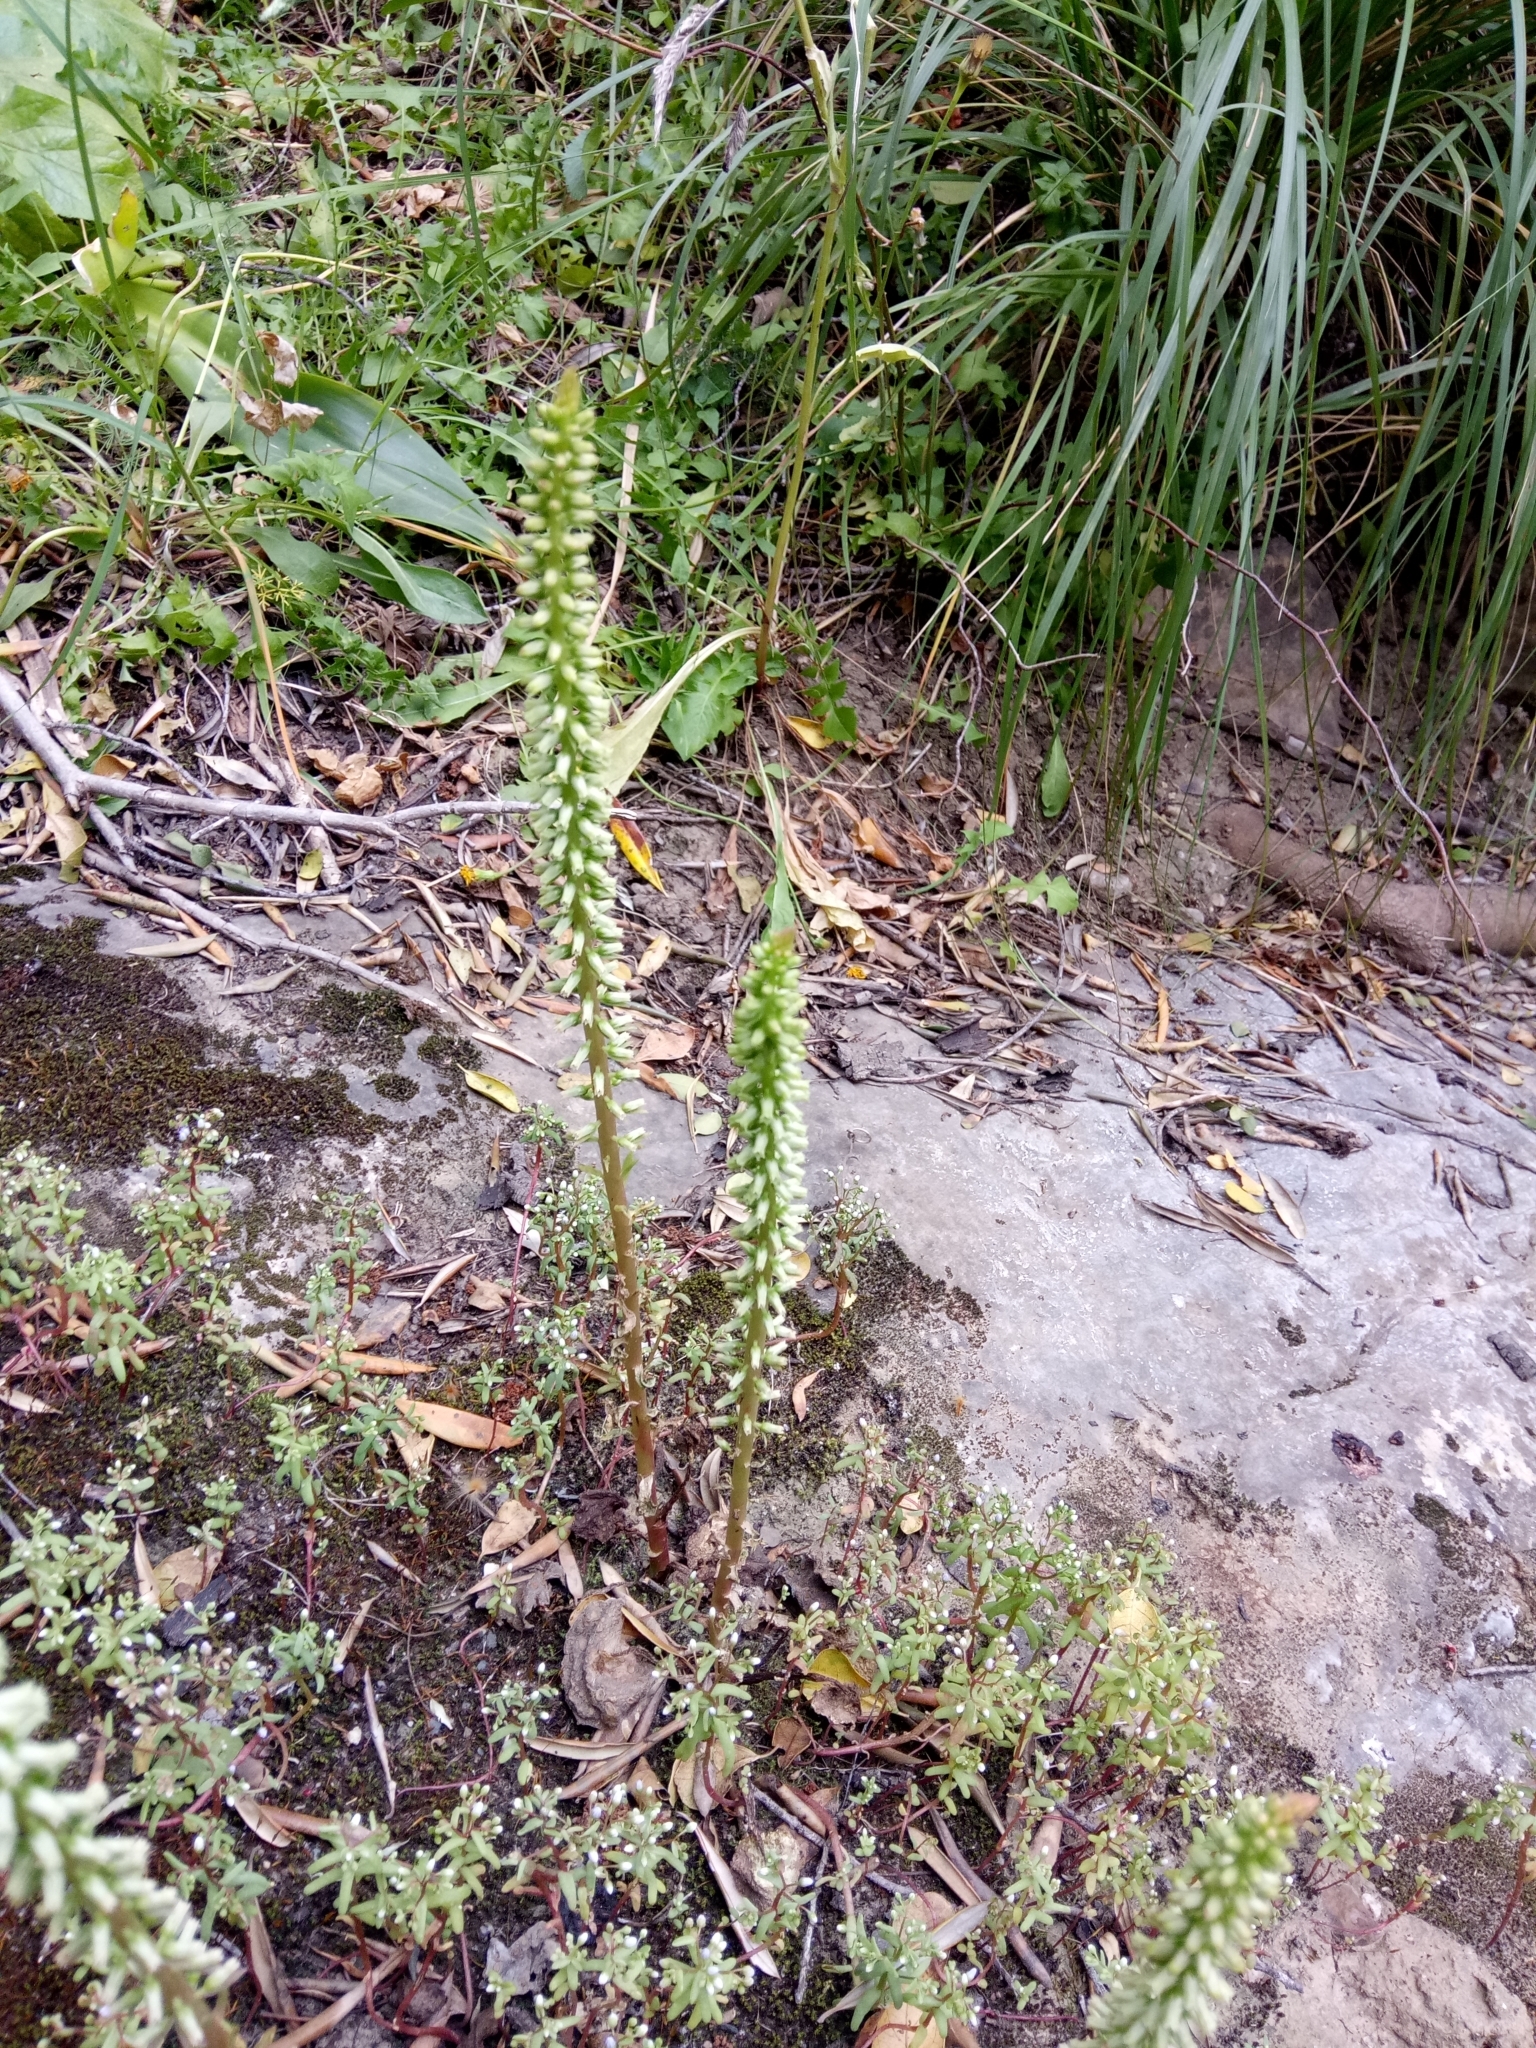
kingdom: Plantae
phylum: Tracheophyta
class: Magnoliopsida
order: Saxifragales
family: Crassulaceae
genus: Umbilicus
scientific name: Umbilicus horizontalis
